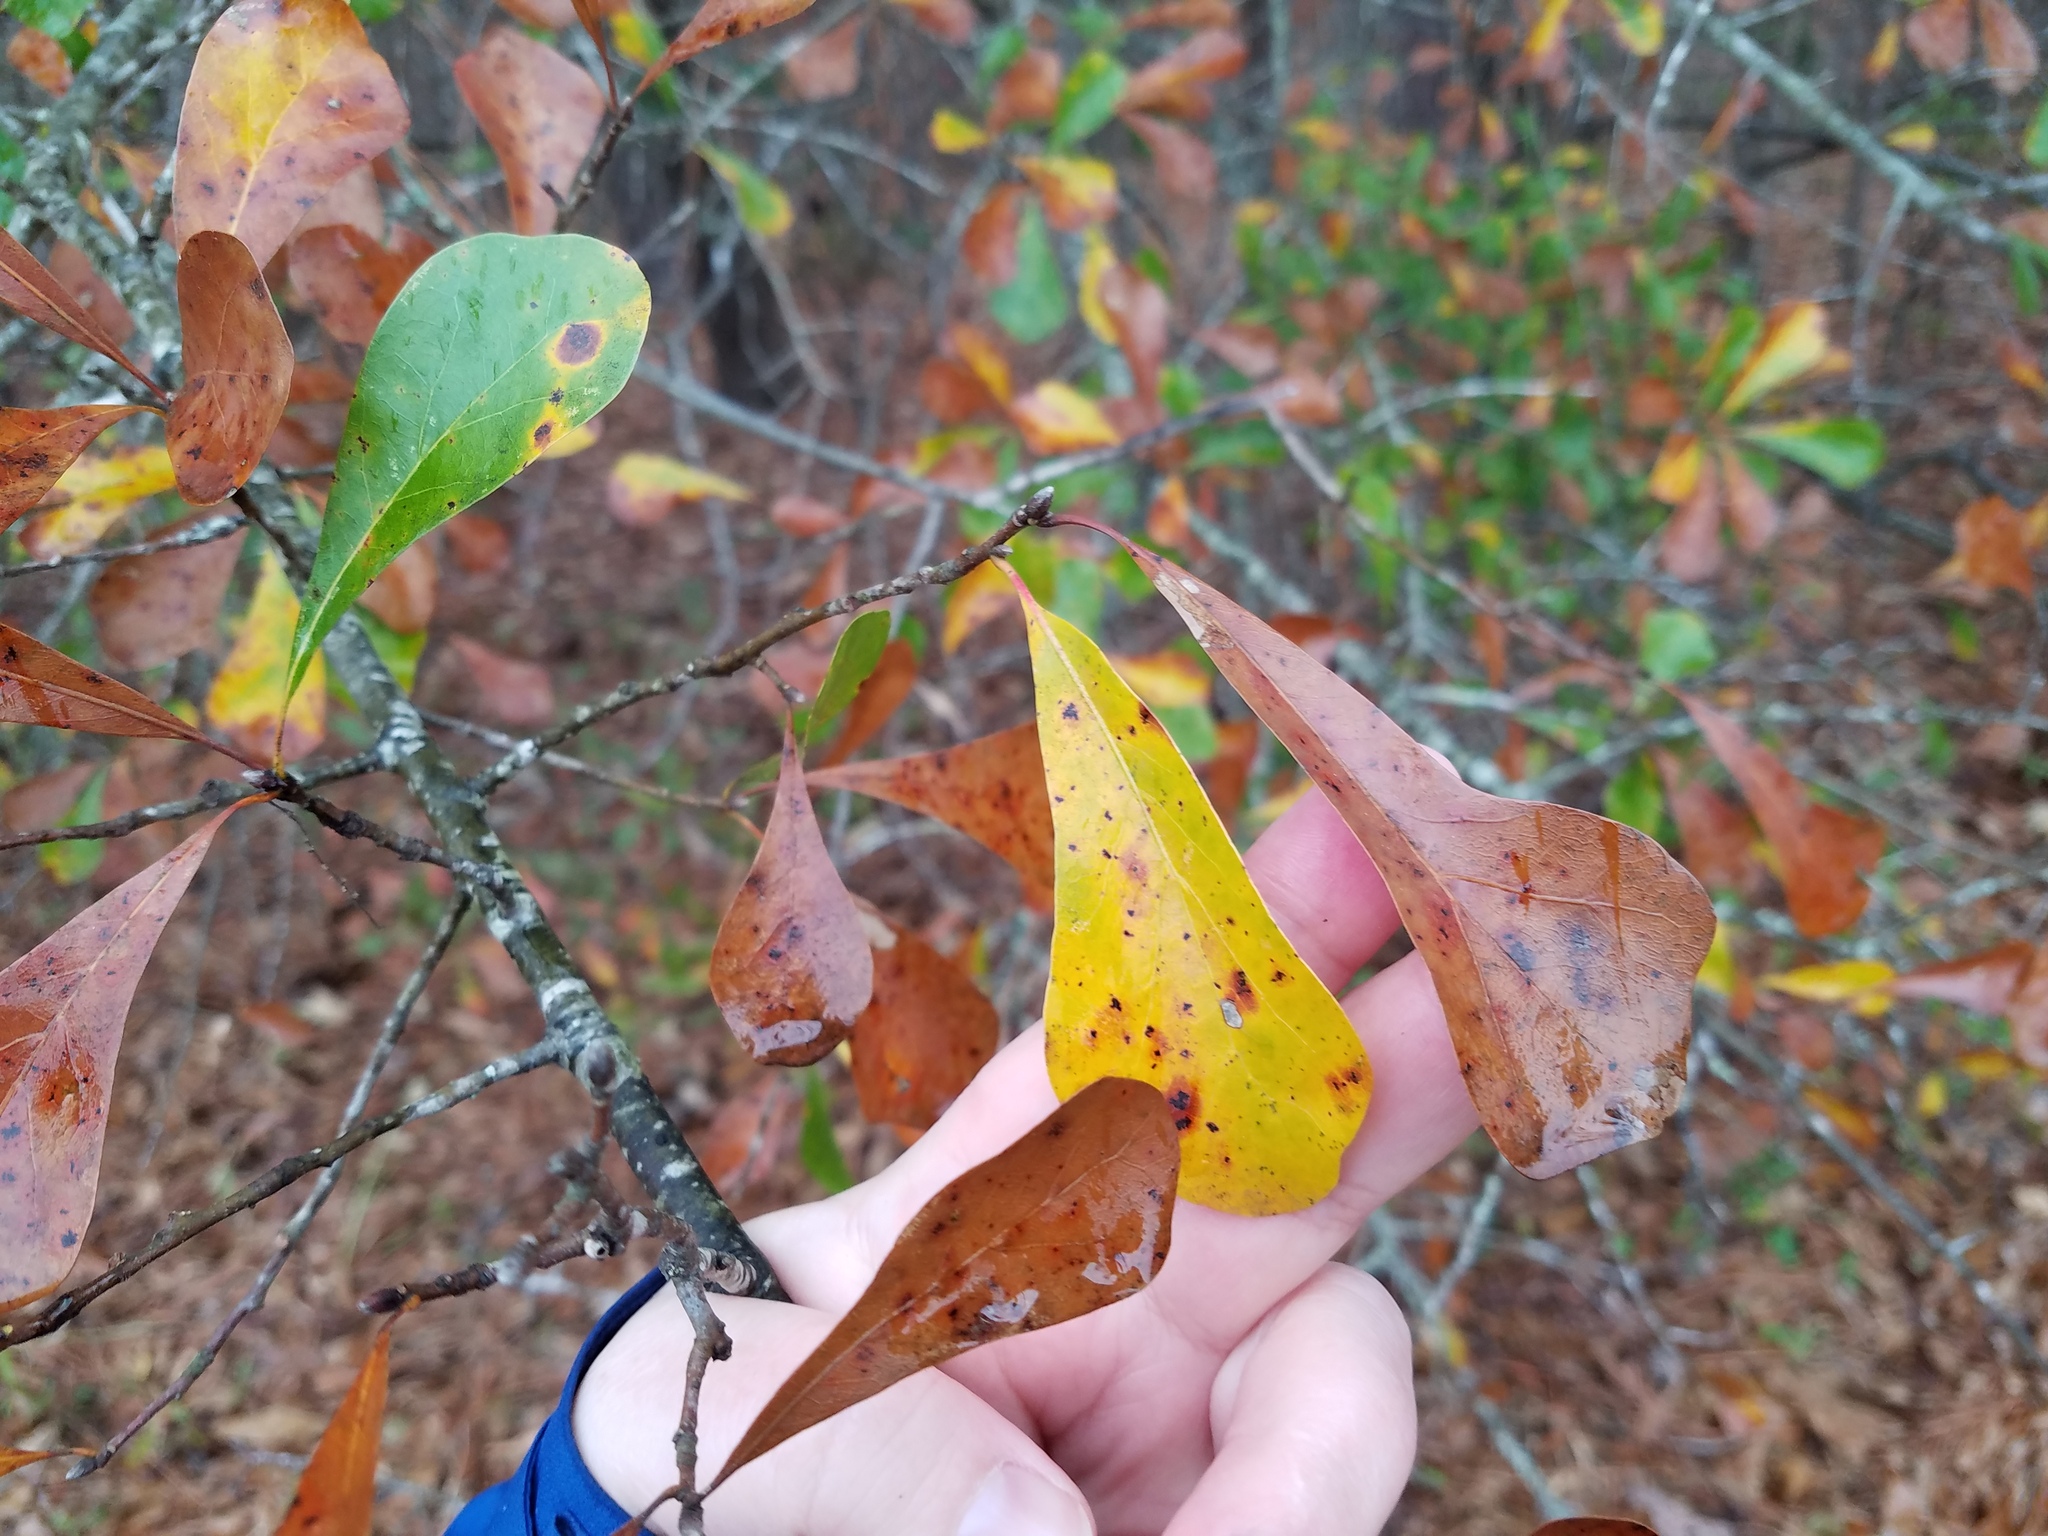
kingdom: Plantae
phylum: Tracheophyta
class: Magnoliopsida
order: Fagales
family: Fagaceae
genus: Quercus
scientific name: Quercus nigra
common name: Water oak
